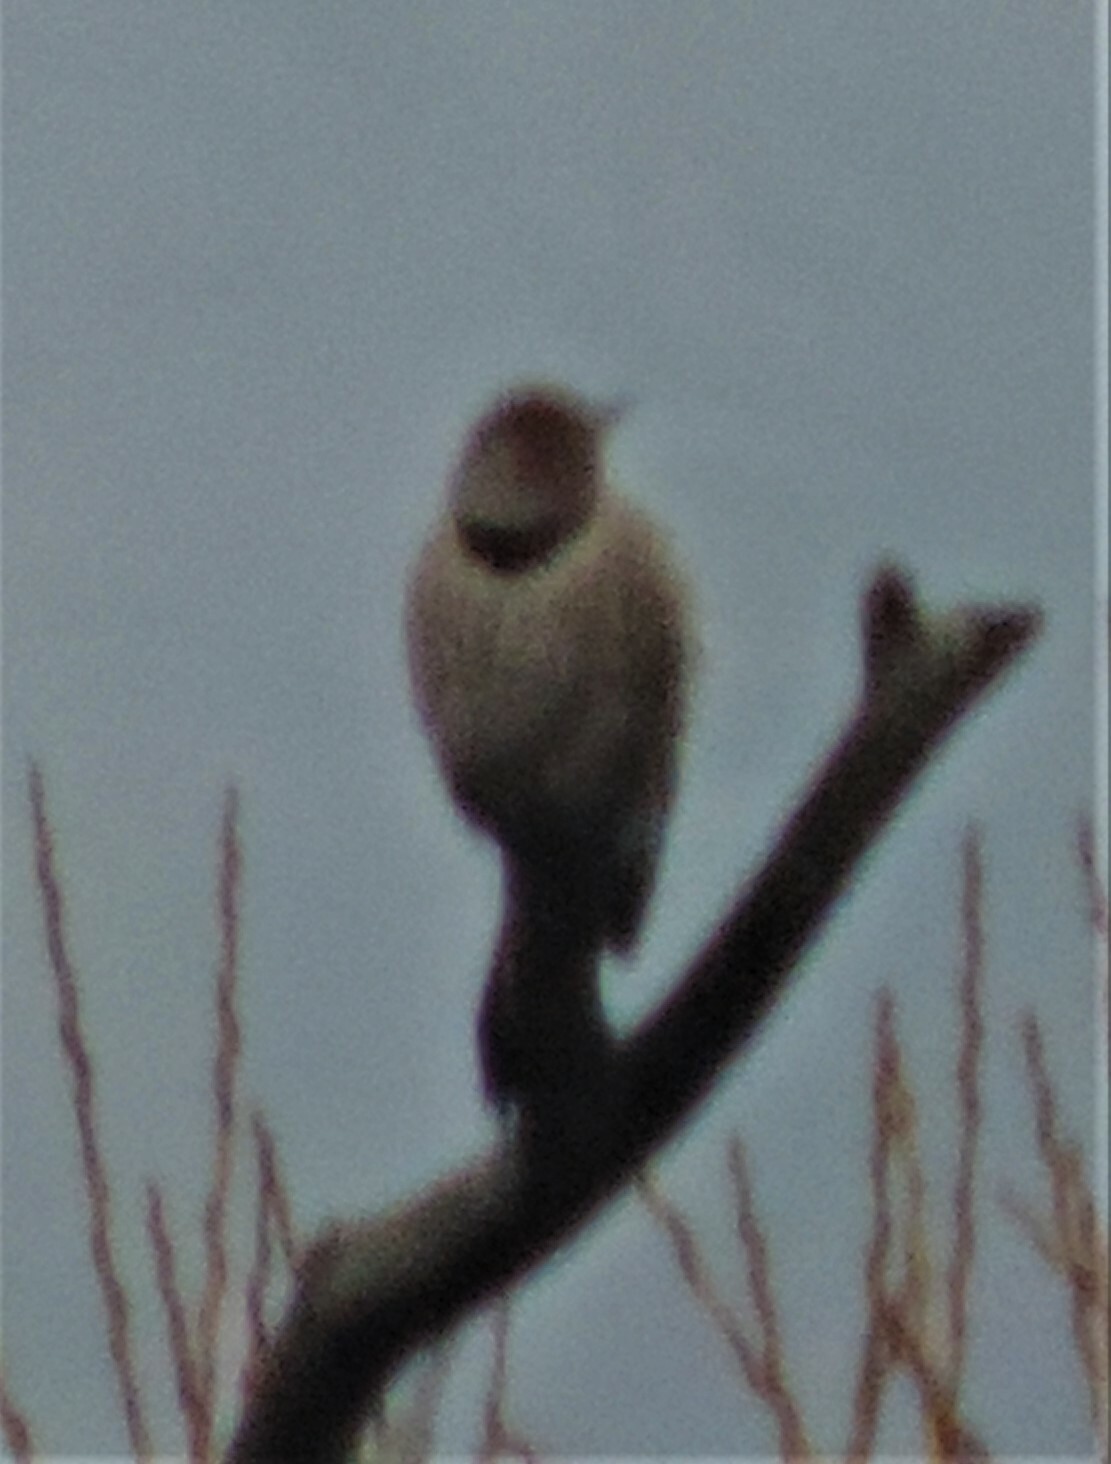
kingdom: Animalia
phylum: Chordata
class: Aves
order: Piciformes
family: Picidae
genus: Colaptes
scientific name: Colaptes auratus
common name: Northern flicker
